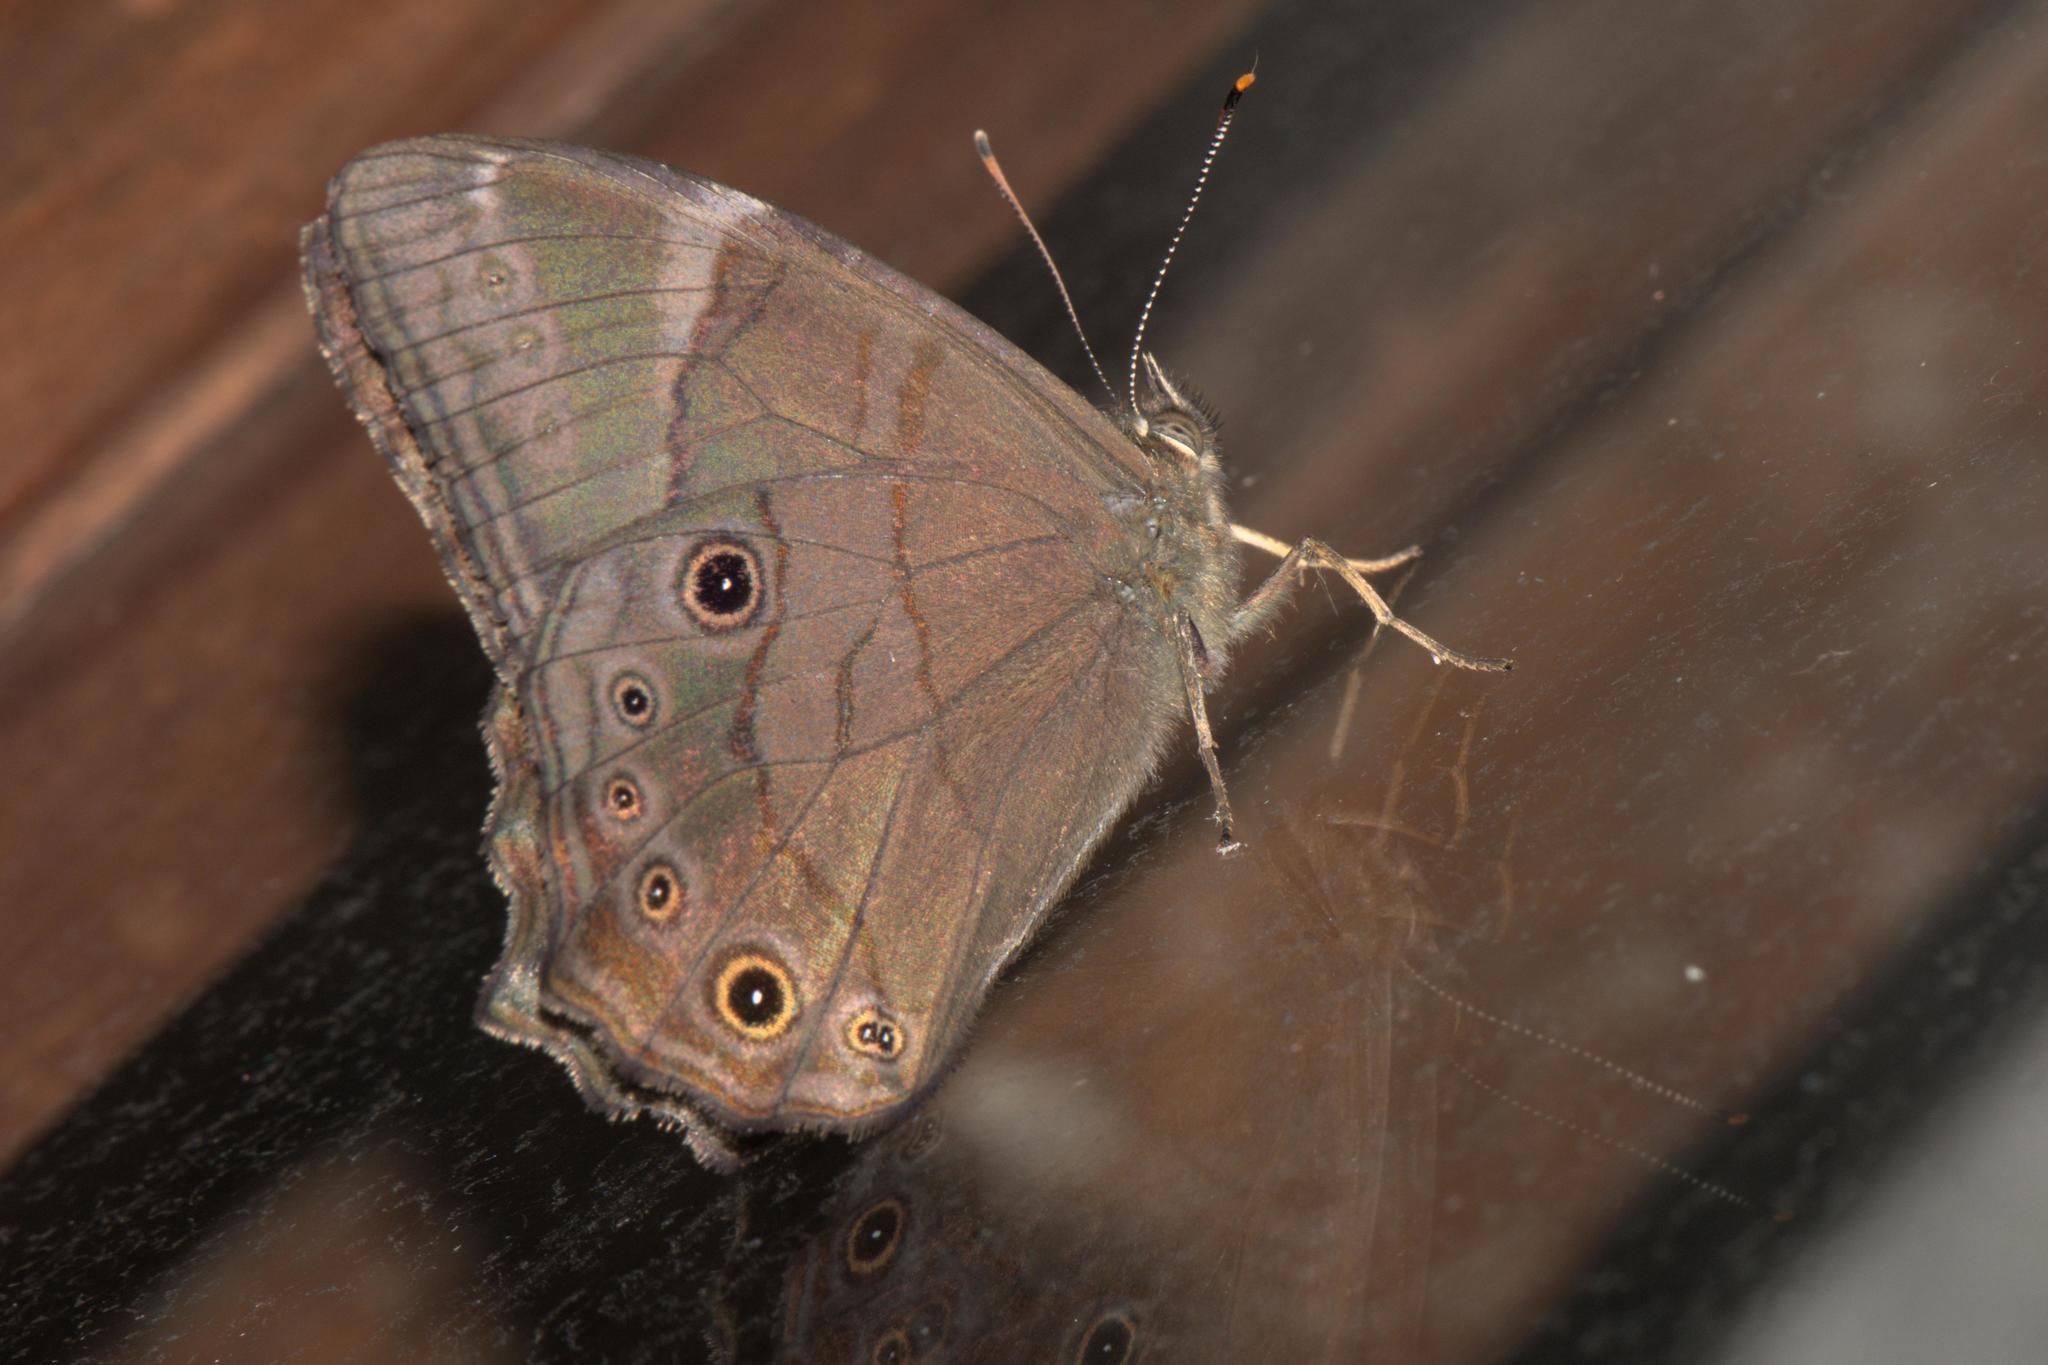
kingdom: Animalia
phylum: Arthropoda
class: Insecta
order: Lepidoptera
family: Nymphalidae
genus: Lethe
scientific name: Lethe
